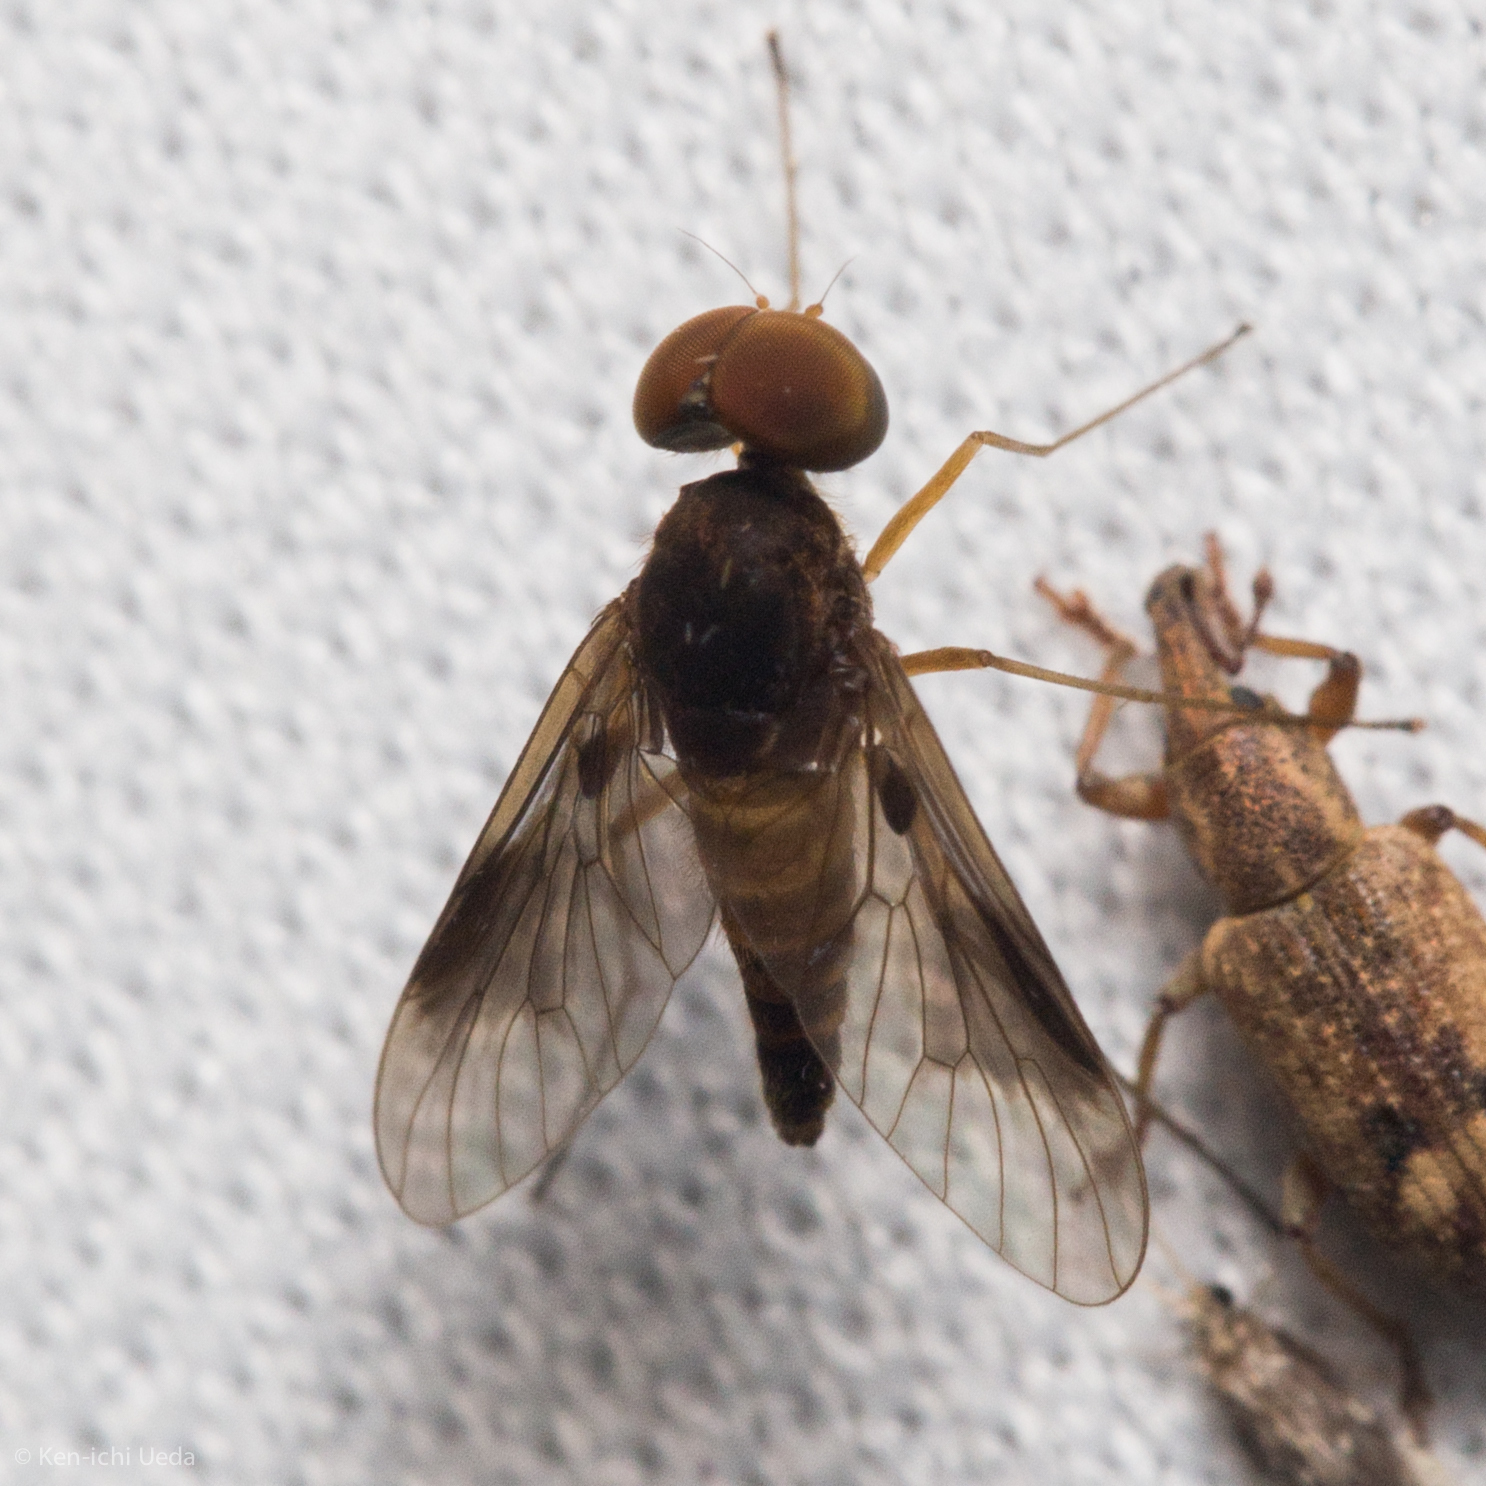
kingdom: Animalia
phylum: Arthropoda
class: Insecta
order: Diptera
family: Rhagionidae
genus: Chrysopilus
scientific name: Chrysopilus quadratus
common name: Quadrate snipe fly
